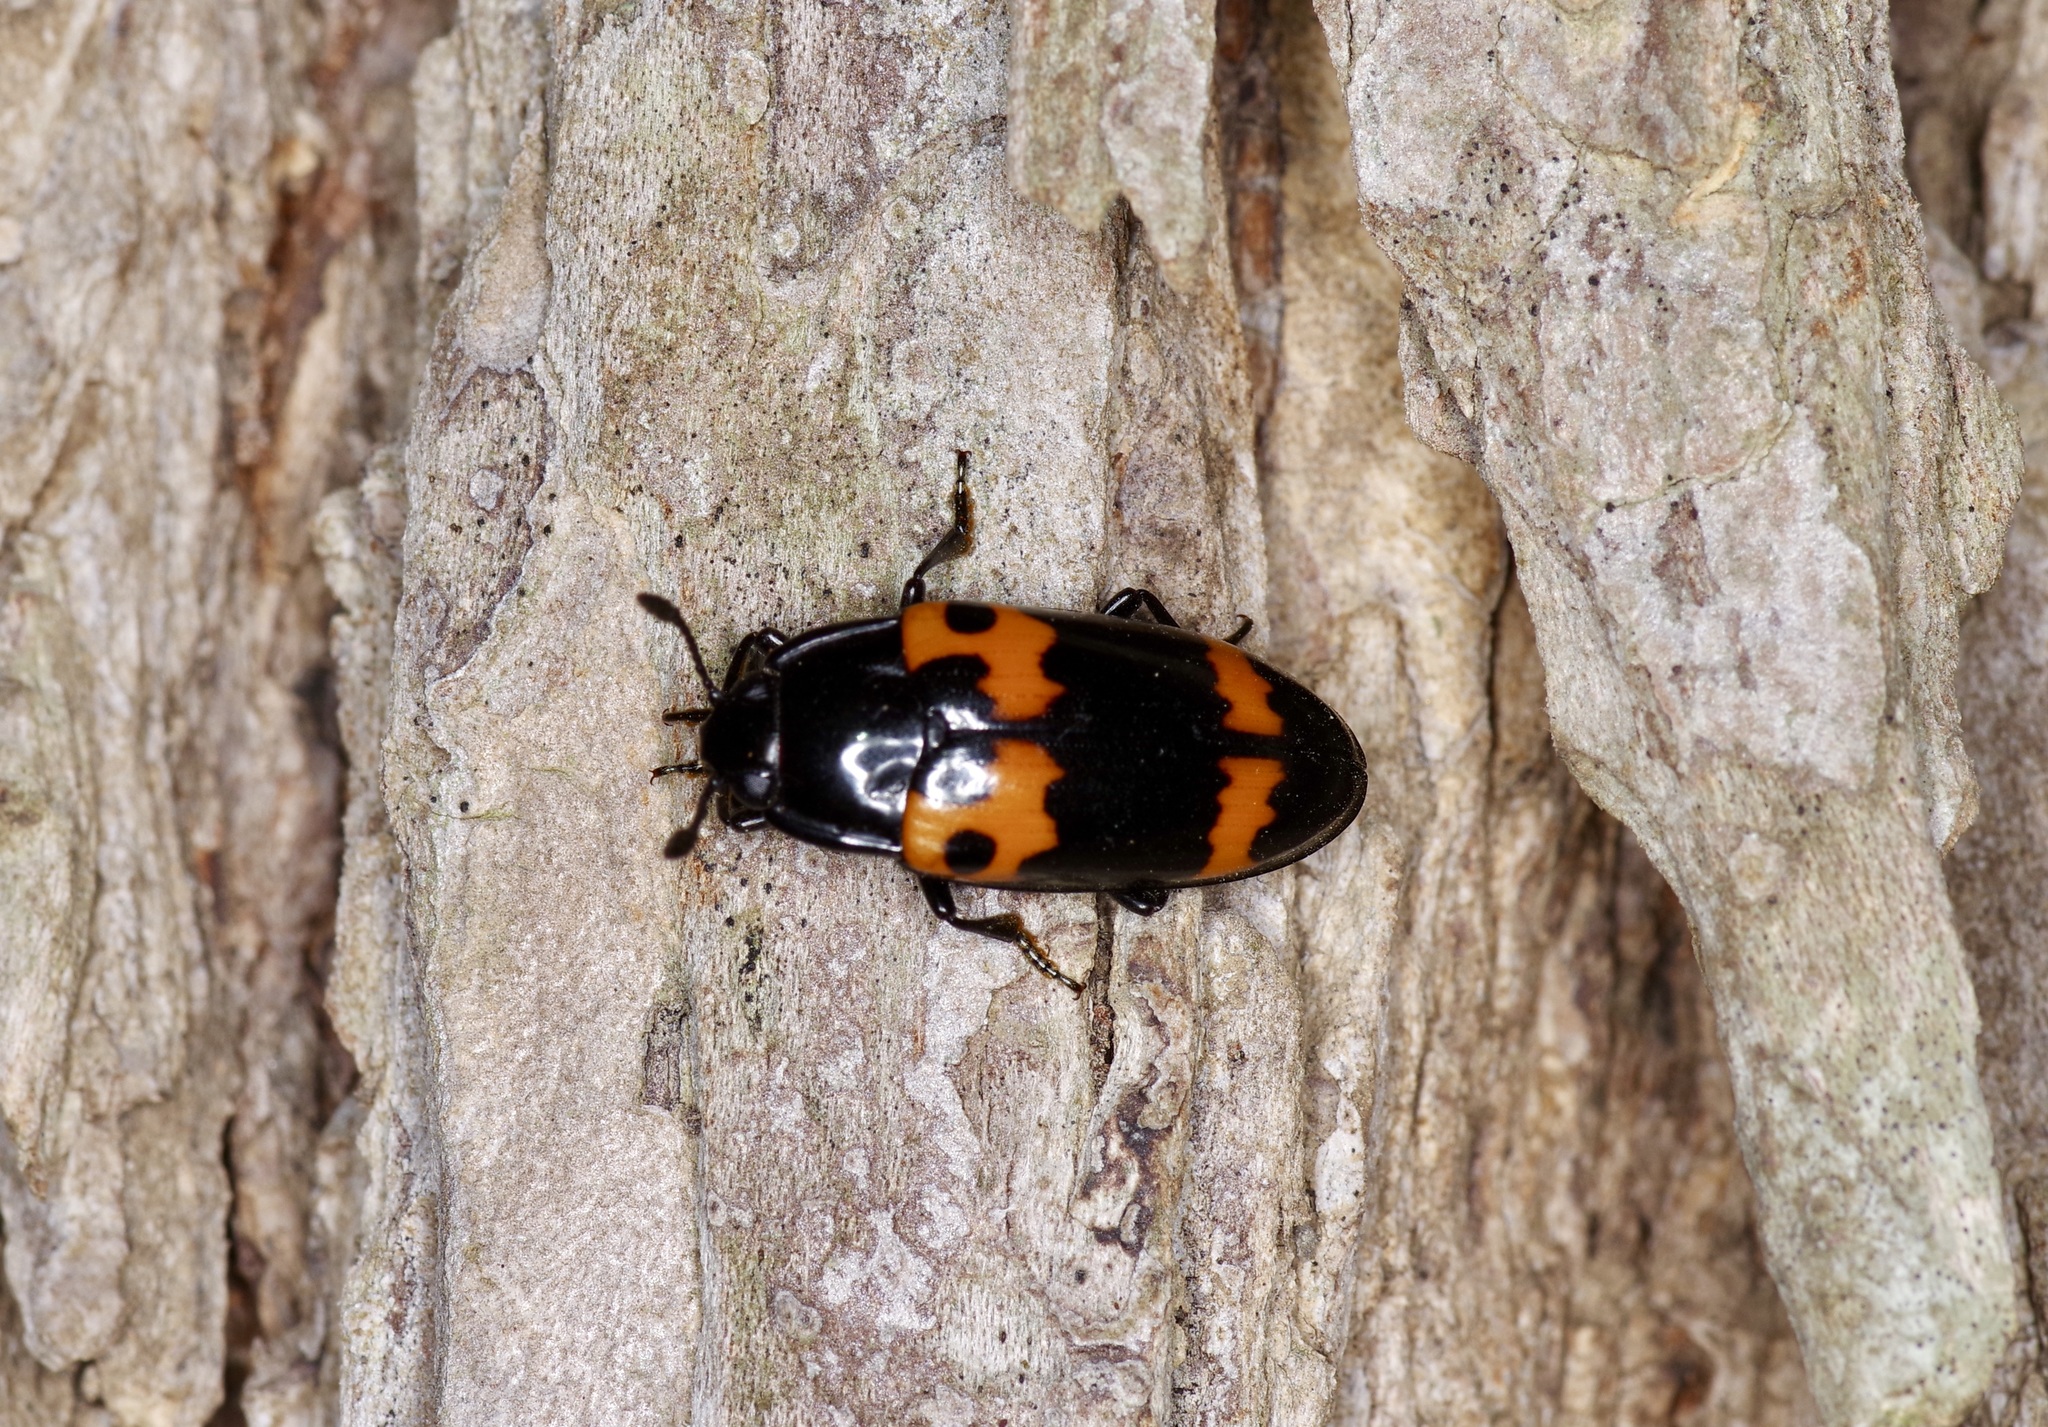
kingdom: Animalia
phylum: Arthropoda
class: Insecta
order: Coleoptera
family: Erotylidae
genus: Megalodacne
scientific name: Megalodacne fasciata
